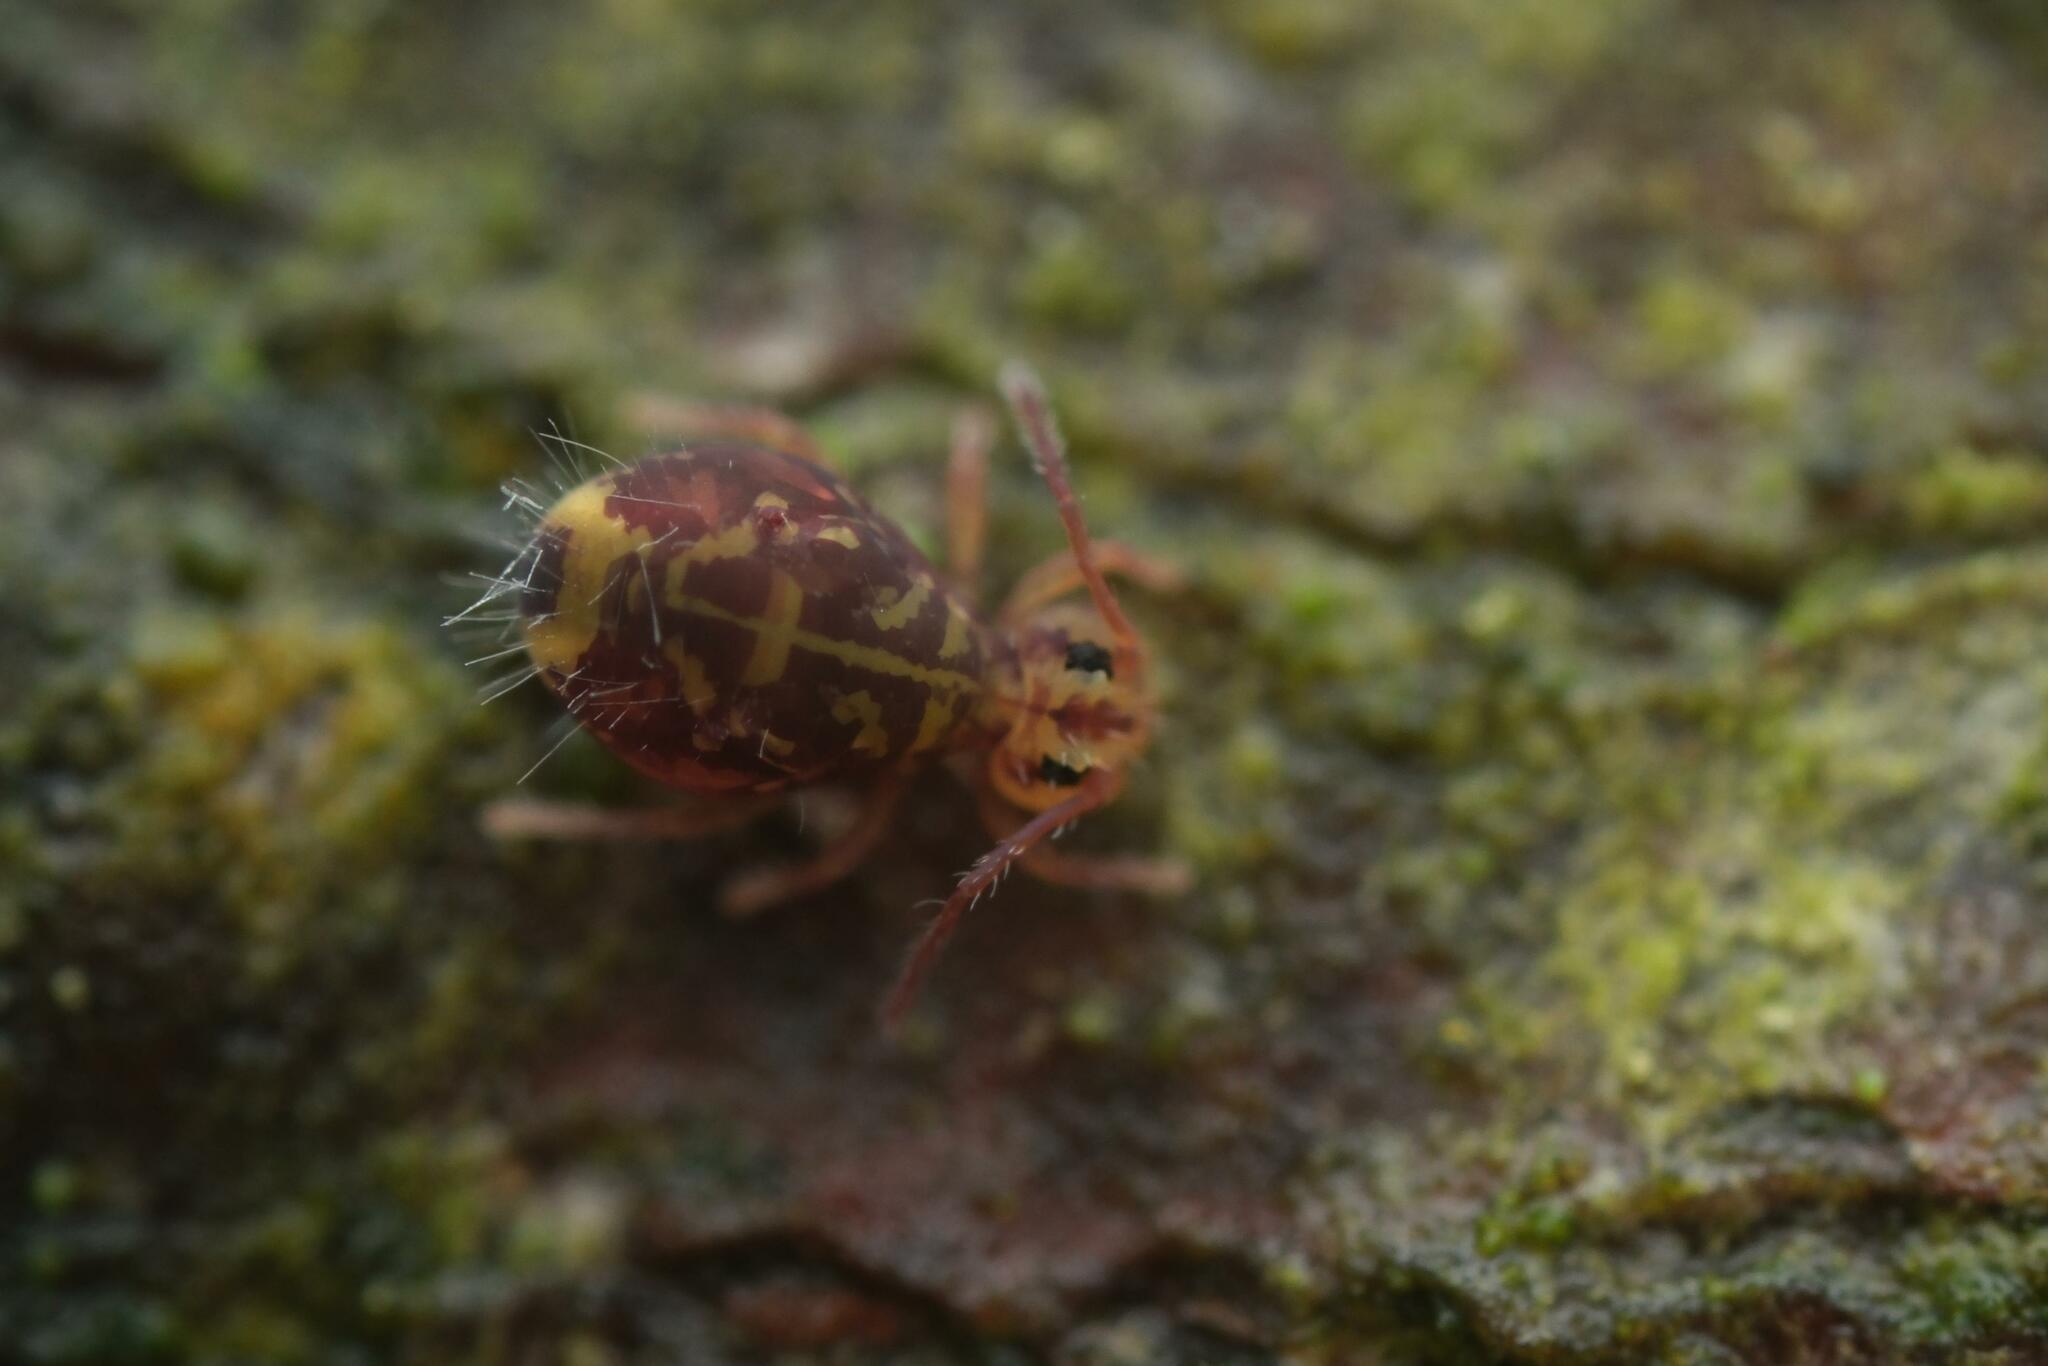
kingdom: Animalia
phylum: Arthropoda
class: Collembola
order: Symphypleona
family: Dicyrtomidae
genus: Dicyrtomina
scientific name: Dicyrtomina ornata
